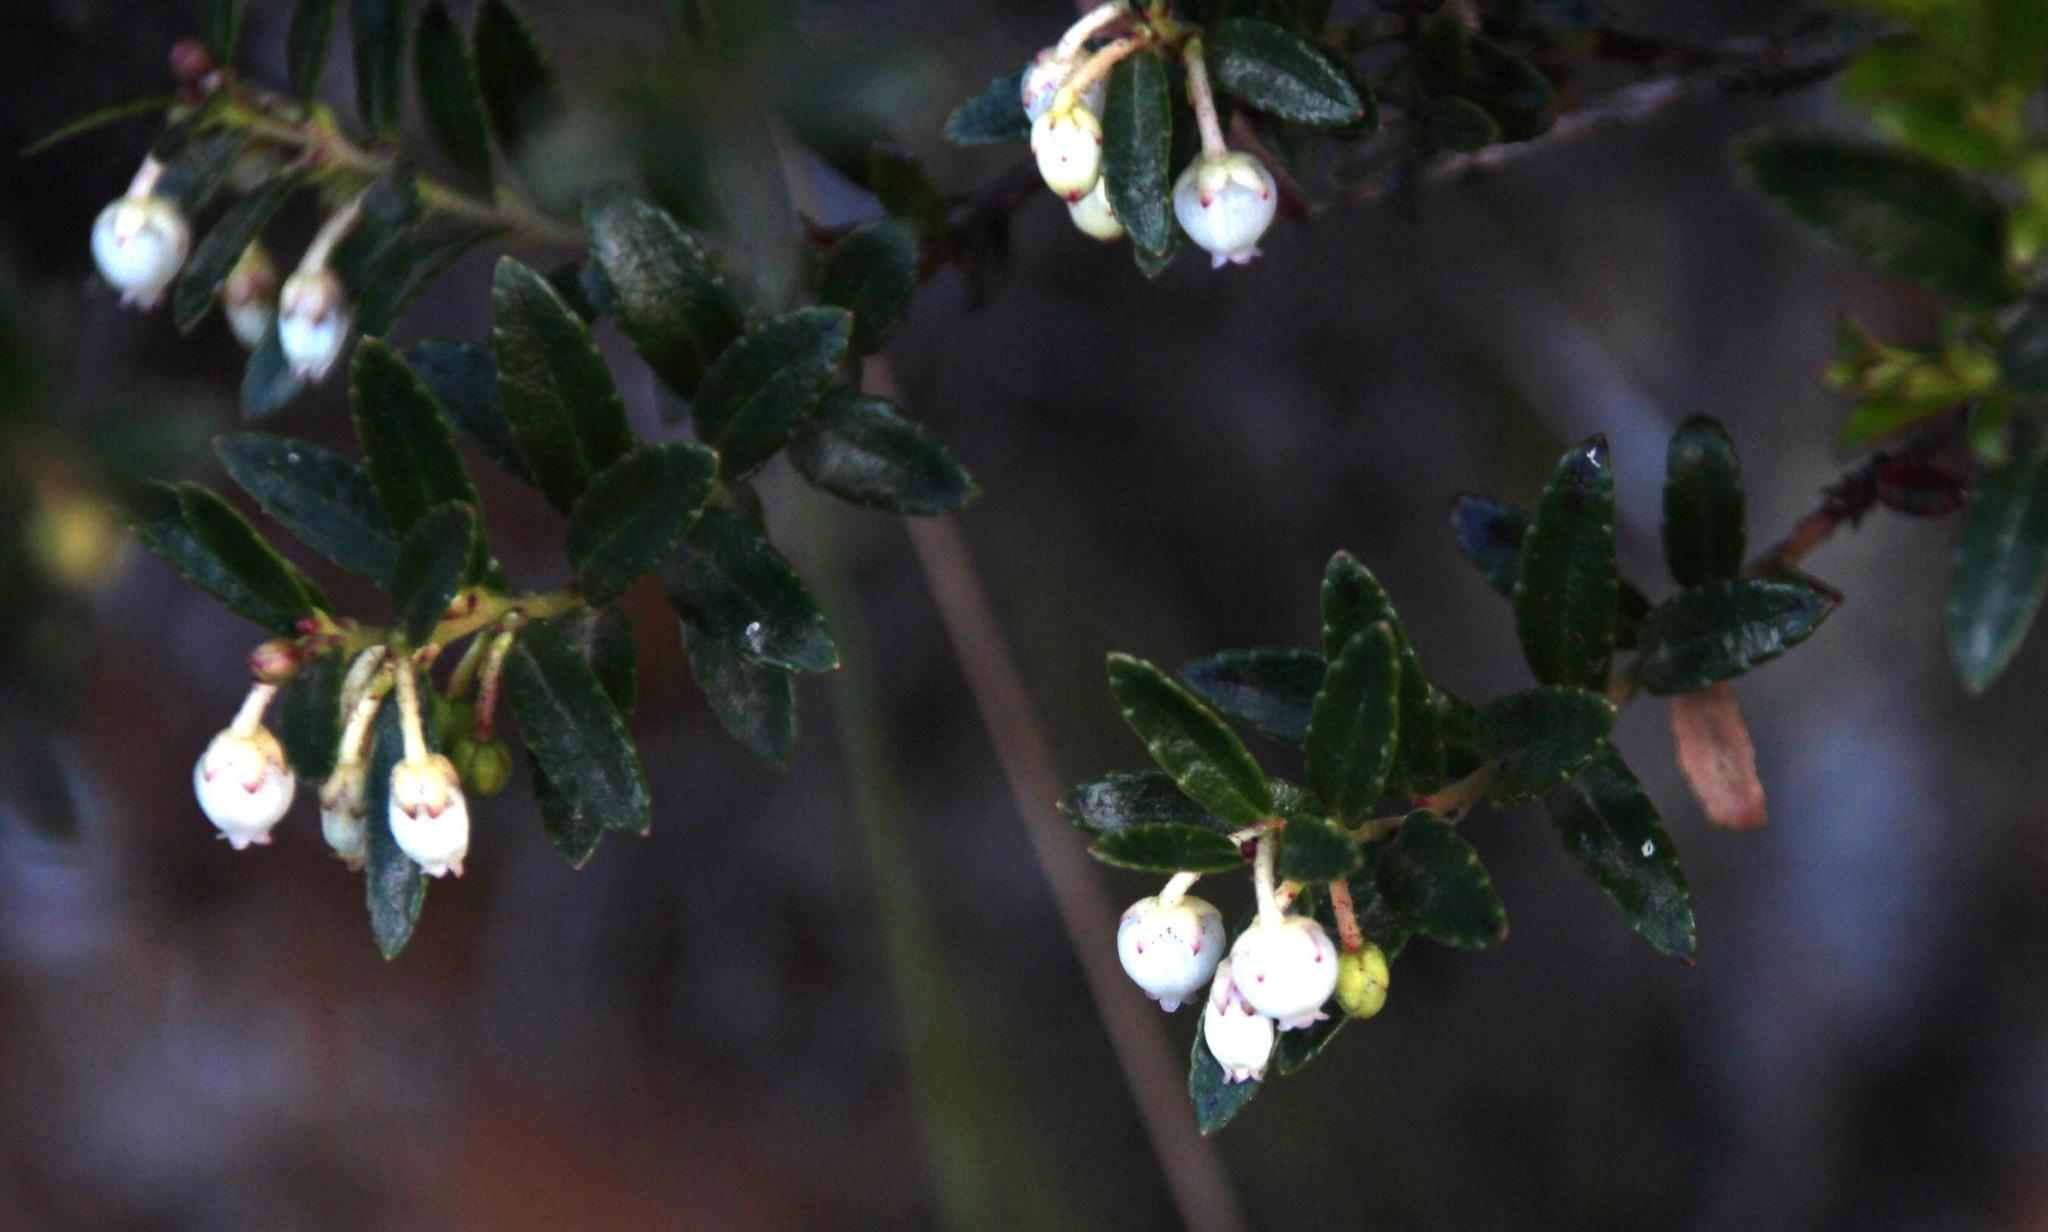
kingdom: Plantae
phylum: Tracheophyta
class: Magnoliopsida
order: Ericales
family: Ericaceae
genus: Gaultheria
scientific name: Gaultheria myrsinoides
